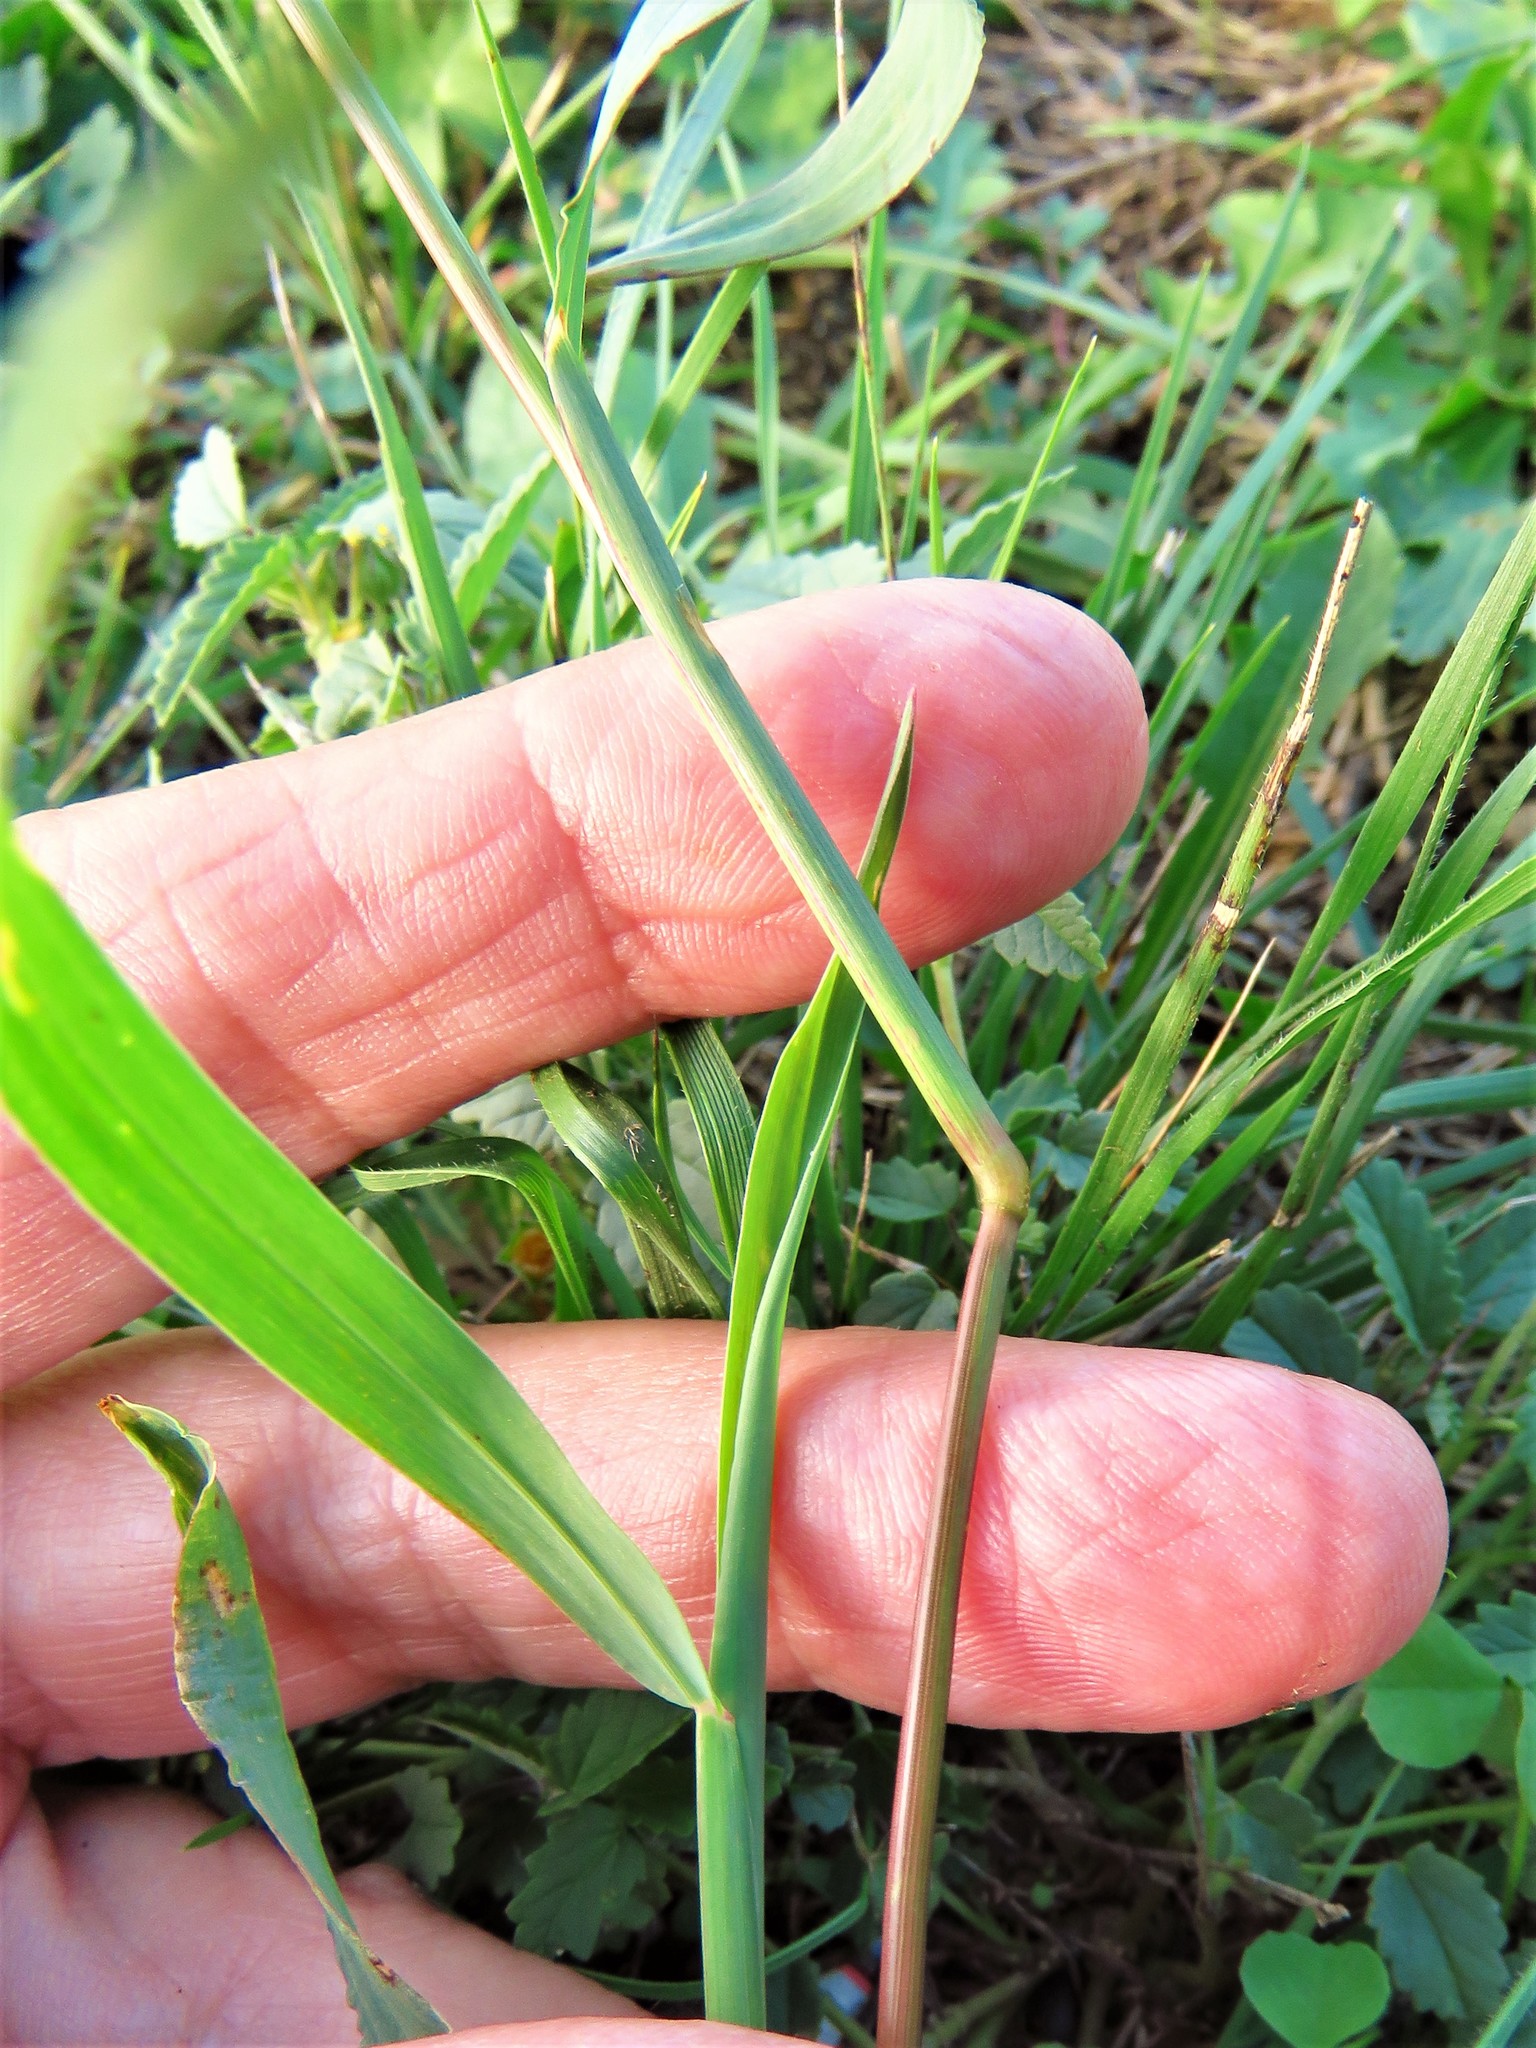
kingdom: Plantae
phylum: Tracheophyta
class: Liliopsida
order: Poales
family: Poaceae
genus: Echinochloa
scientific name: Echinochloa colonum
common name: Jungle rice
